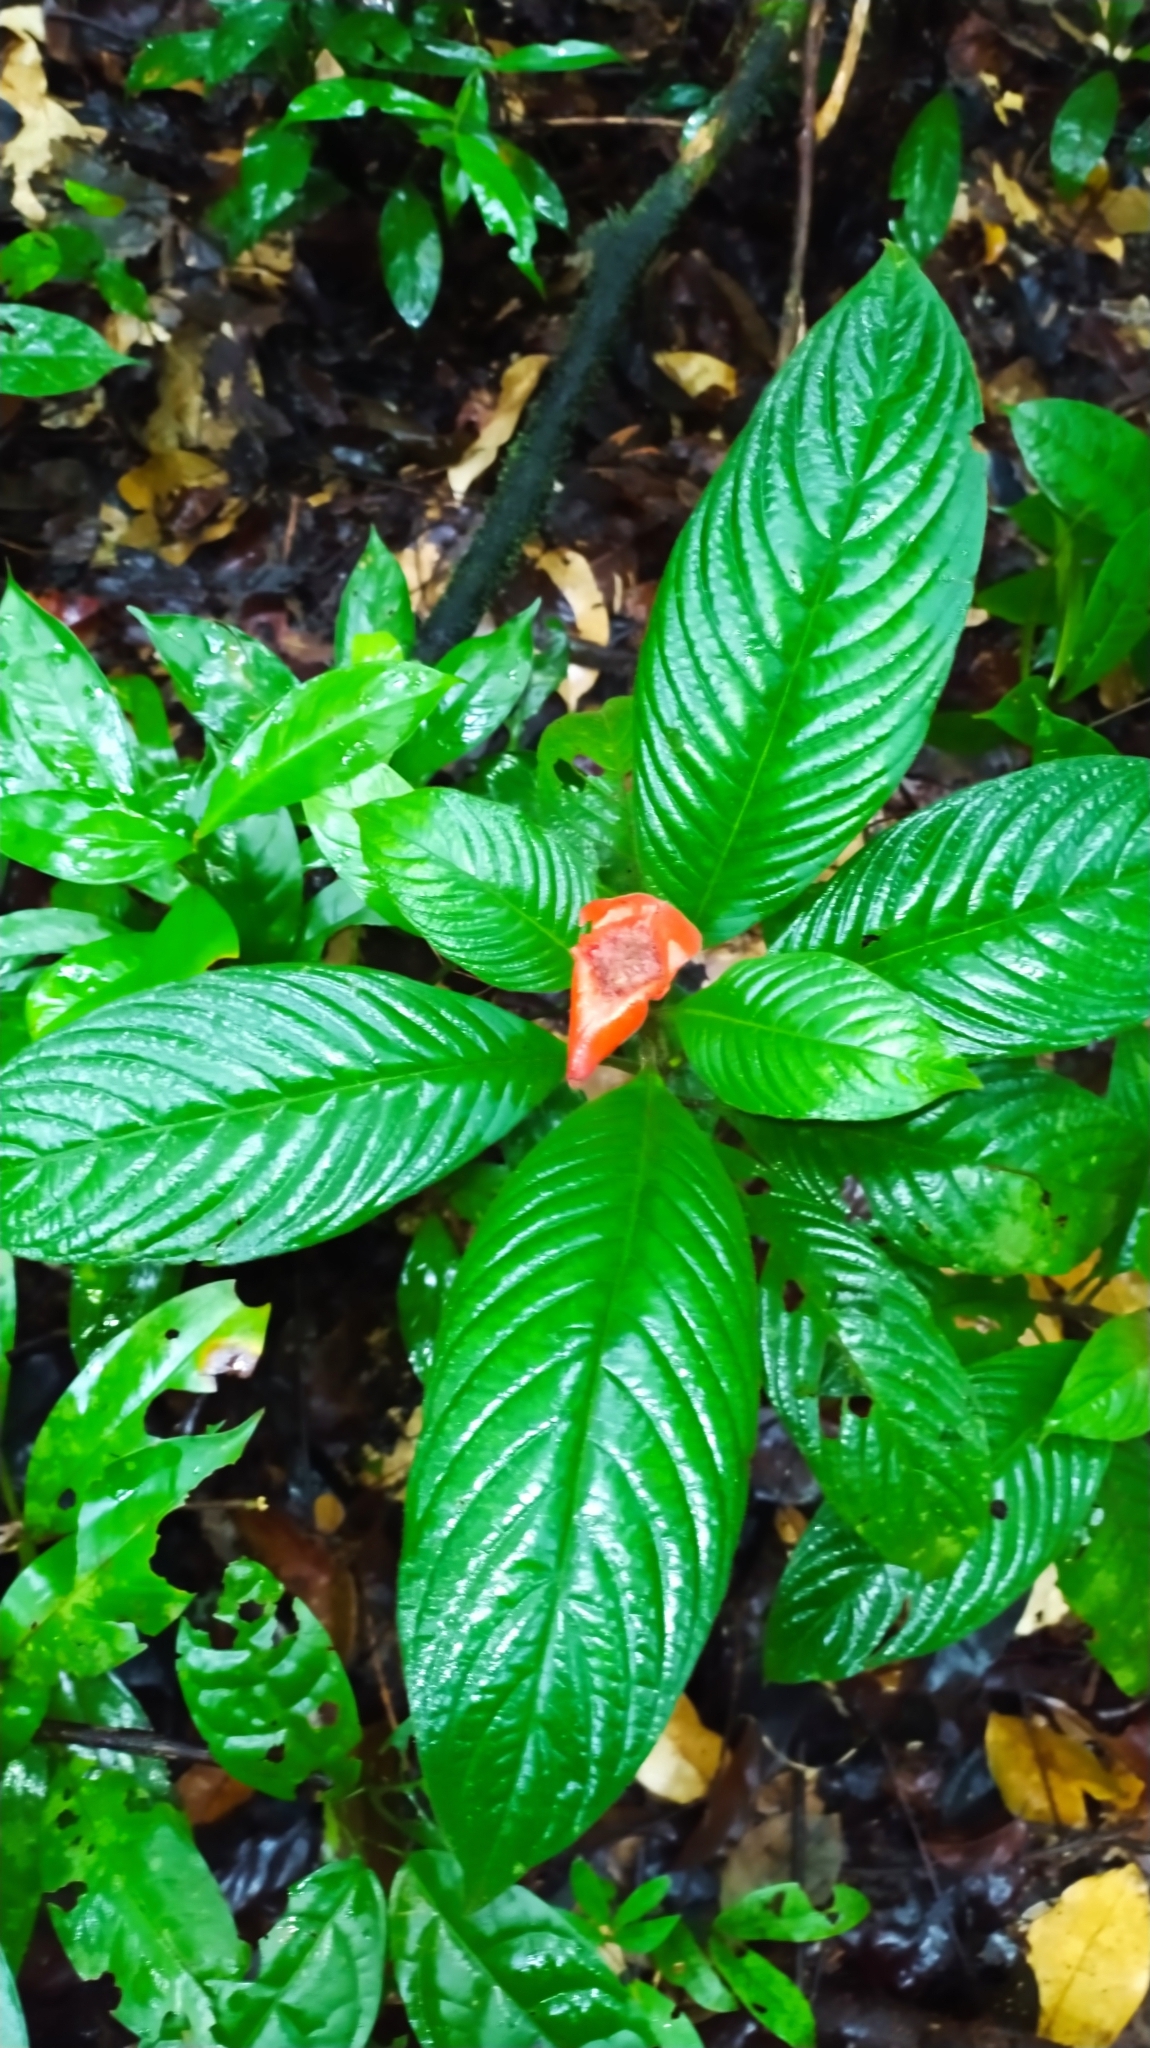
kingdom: Plantae
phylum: Tracheophyta
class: Magnoliopsida
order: Gentianales
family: Rubiaceae
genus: Palicourea
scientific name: Palicourea tomentosa
